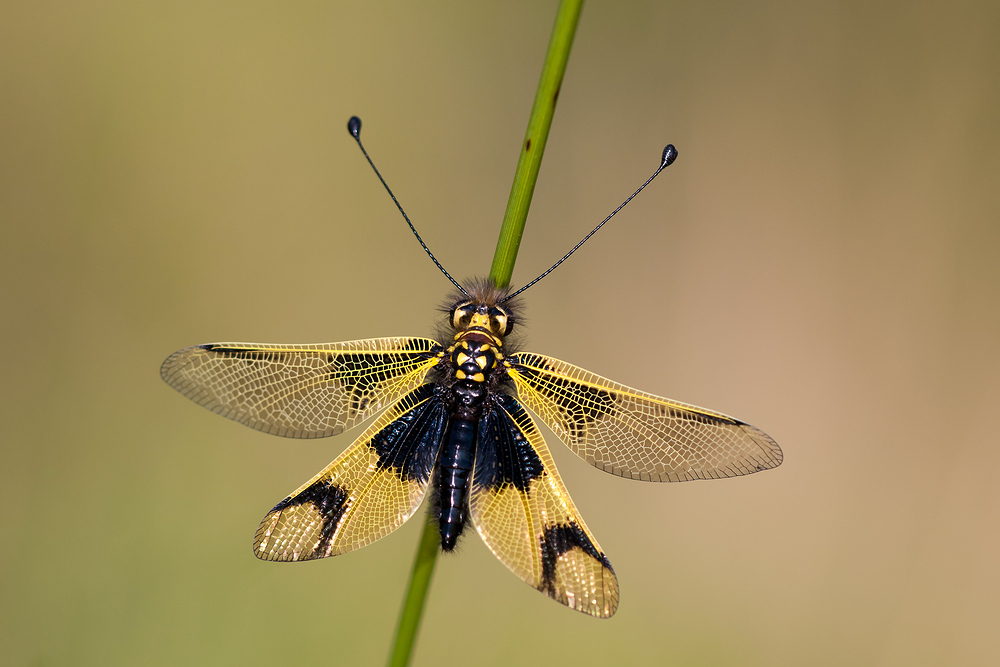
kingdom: Animalia
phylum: Arthropoda
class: Insecta
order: Neuroptera
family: Ascalaphidae
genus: Libelloides
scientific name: Libelloides longicornis
